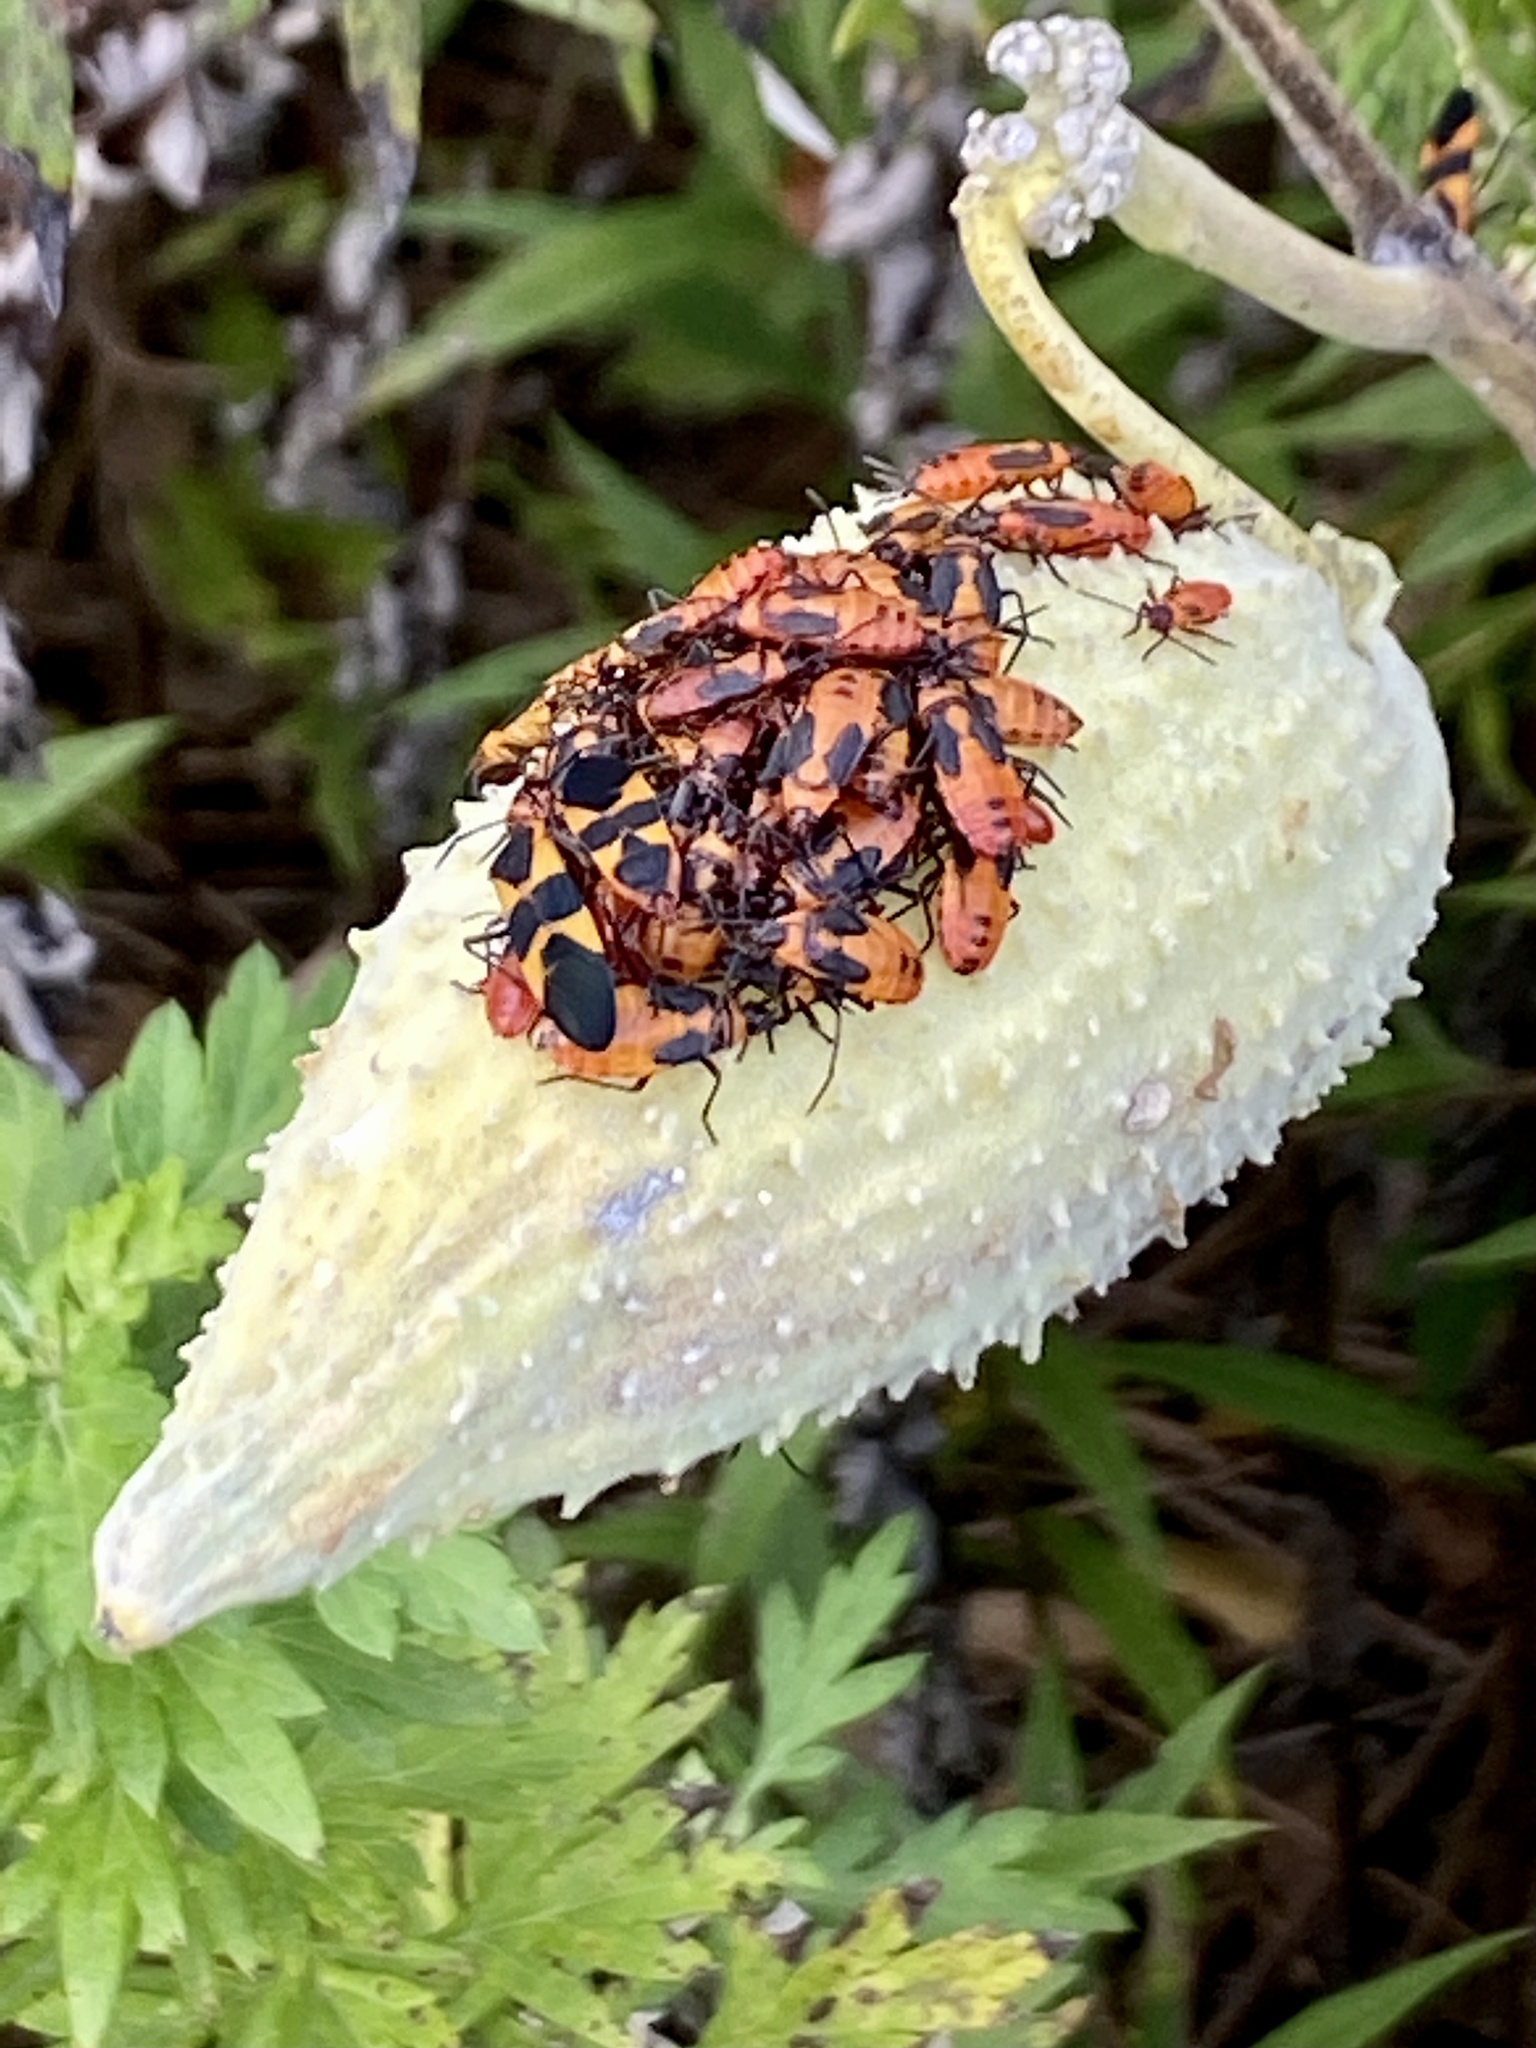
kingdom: Animalia
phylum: Arthropoda
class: Insecta
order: Hemiptera
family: Lygaeidae
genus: Oncopeltus
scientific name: Oncopeltus fasciatus
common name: Large milkweed bug
